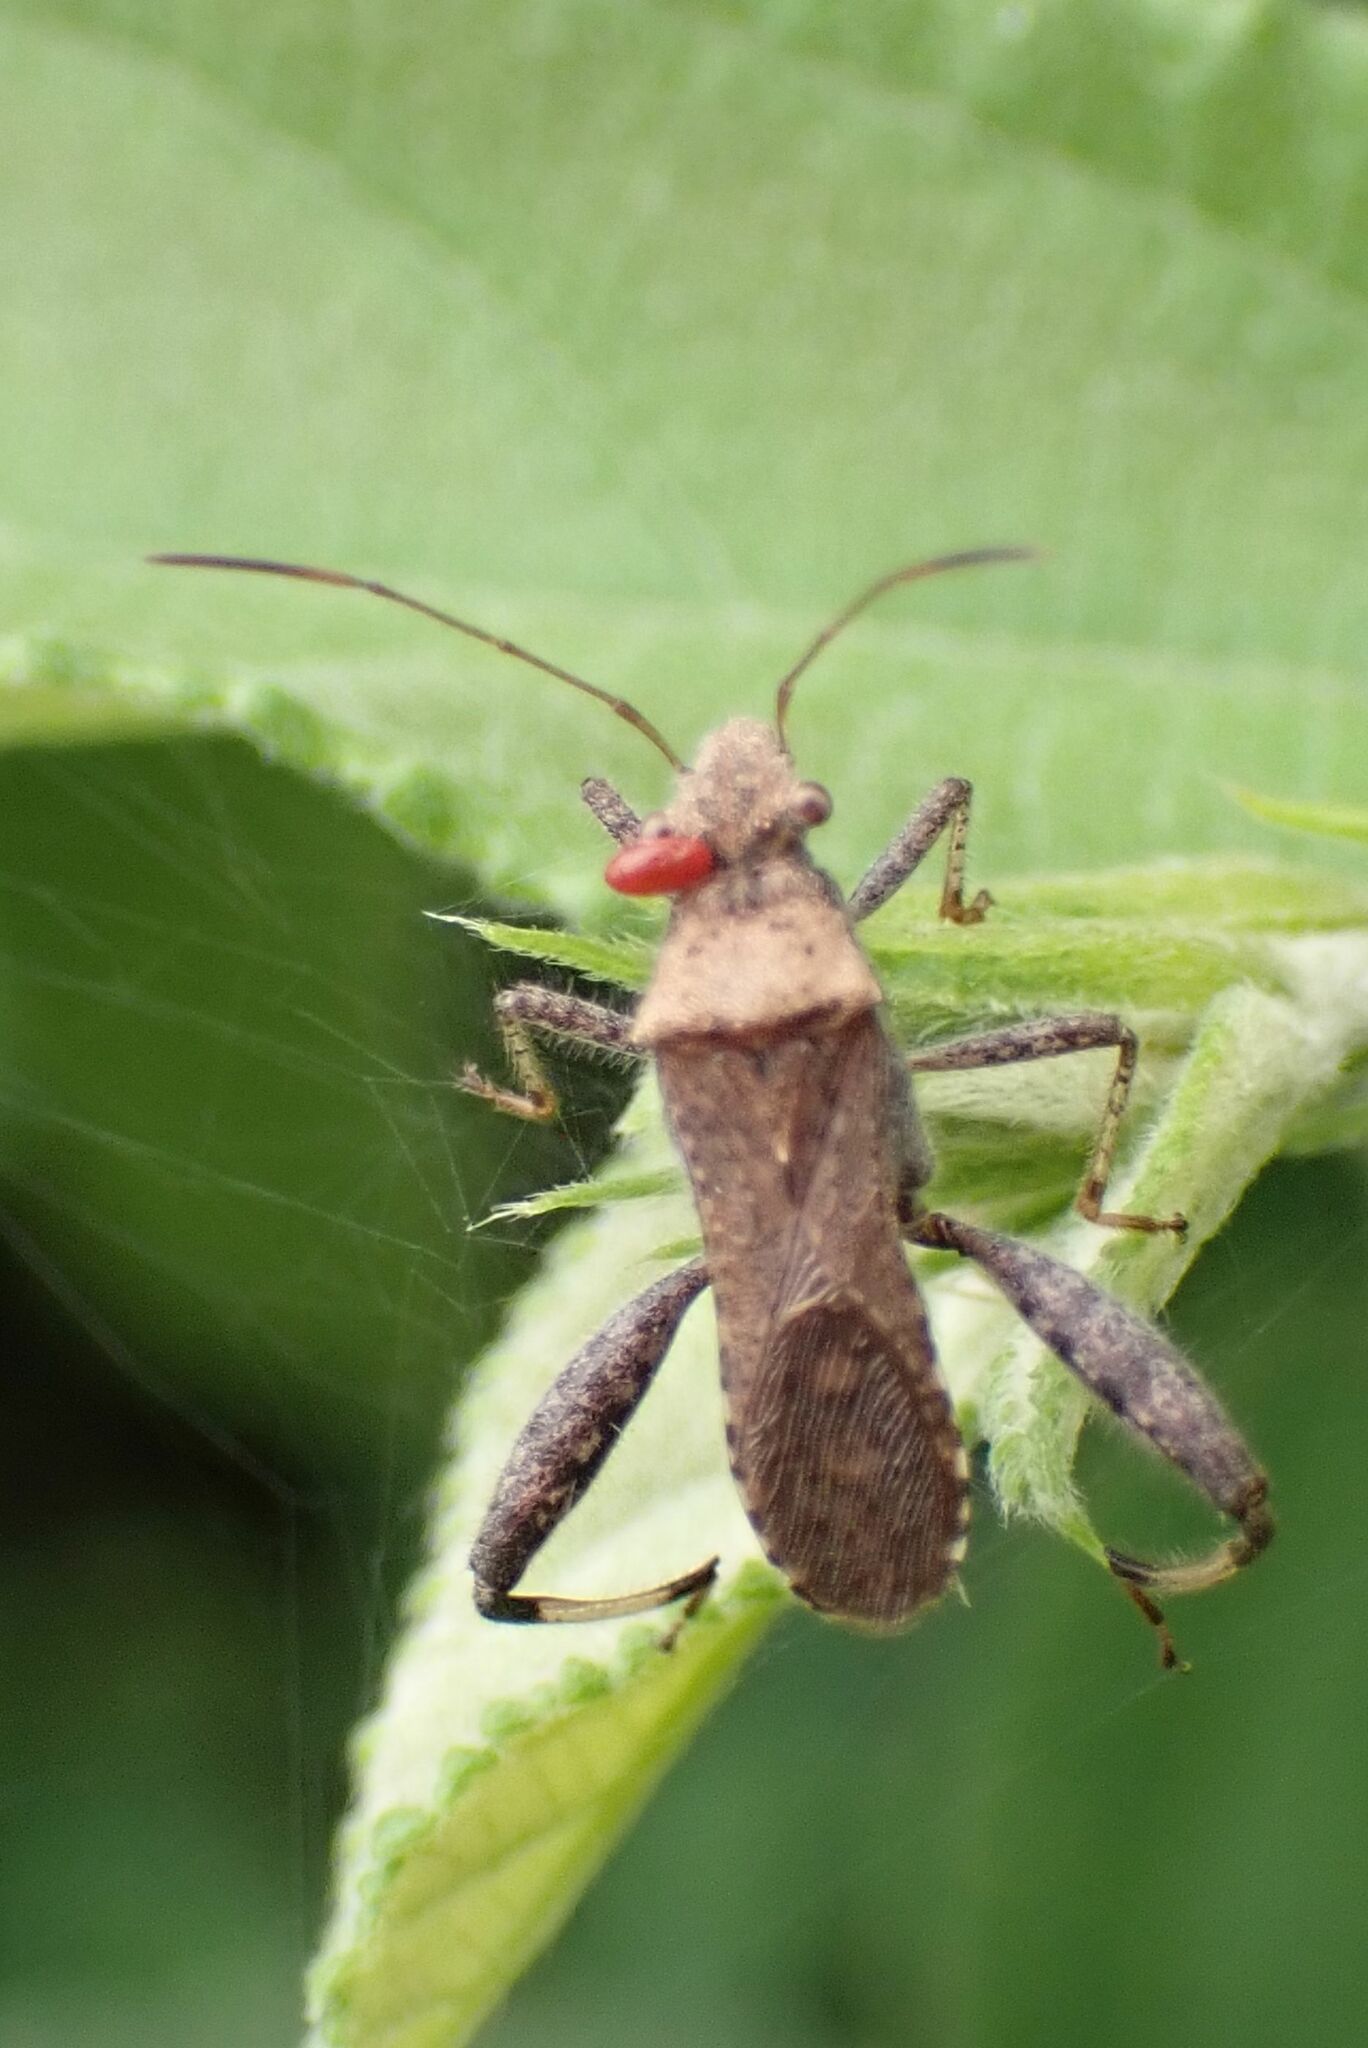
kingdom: Animalia
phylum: Arthropoda
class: Insecta
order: Hemiptera
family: Alydidae
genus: Heegeria
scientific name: Heegeria tangirica
